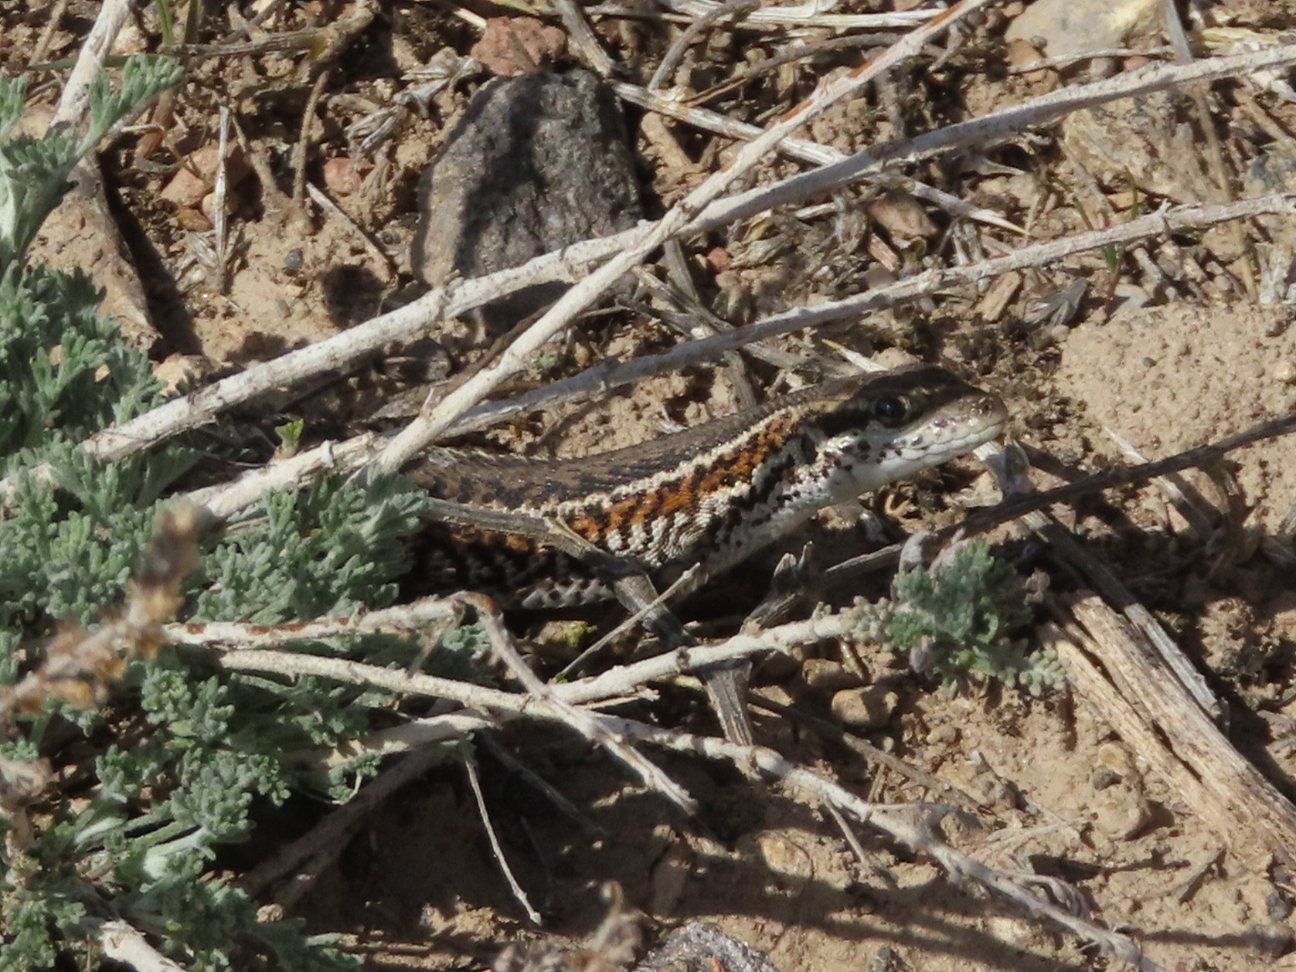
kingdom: Animalia
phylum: Chordata
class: Squamata
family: Lacertidae
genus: Ophisops
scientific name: Ophisops elegans
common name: Snake-eyed lizard
